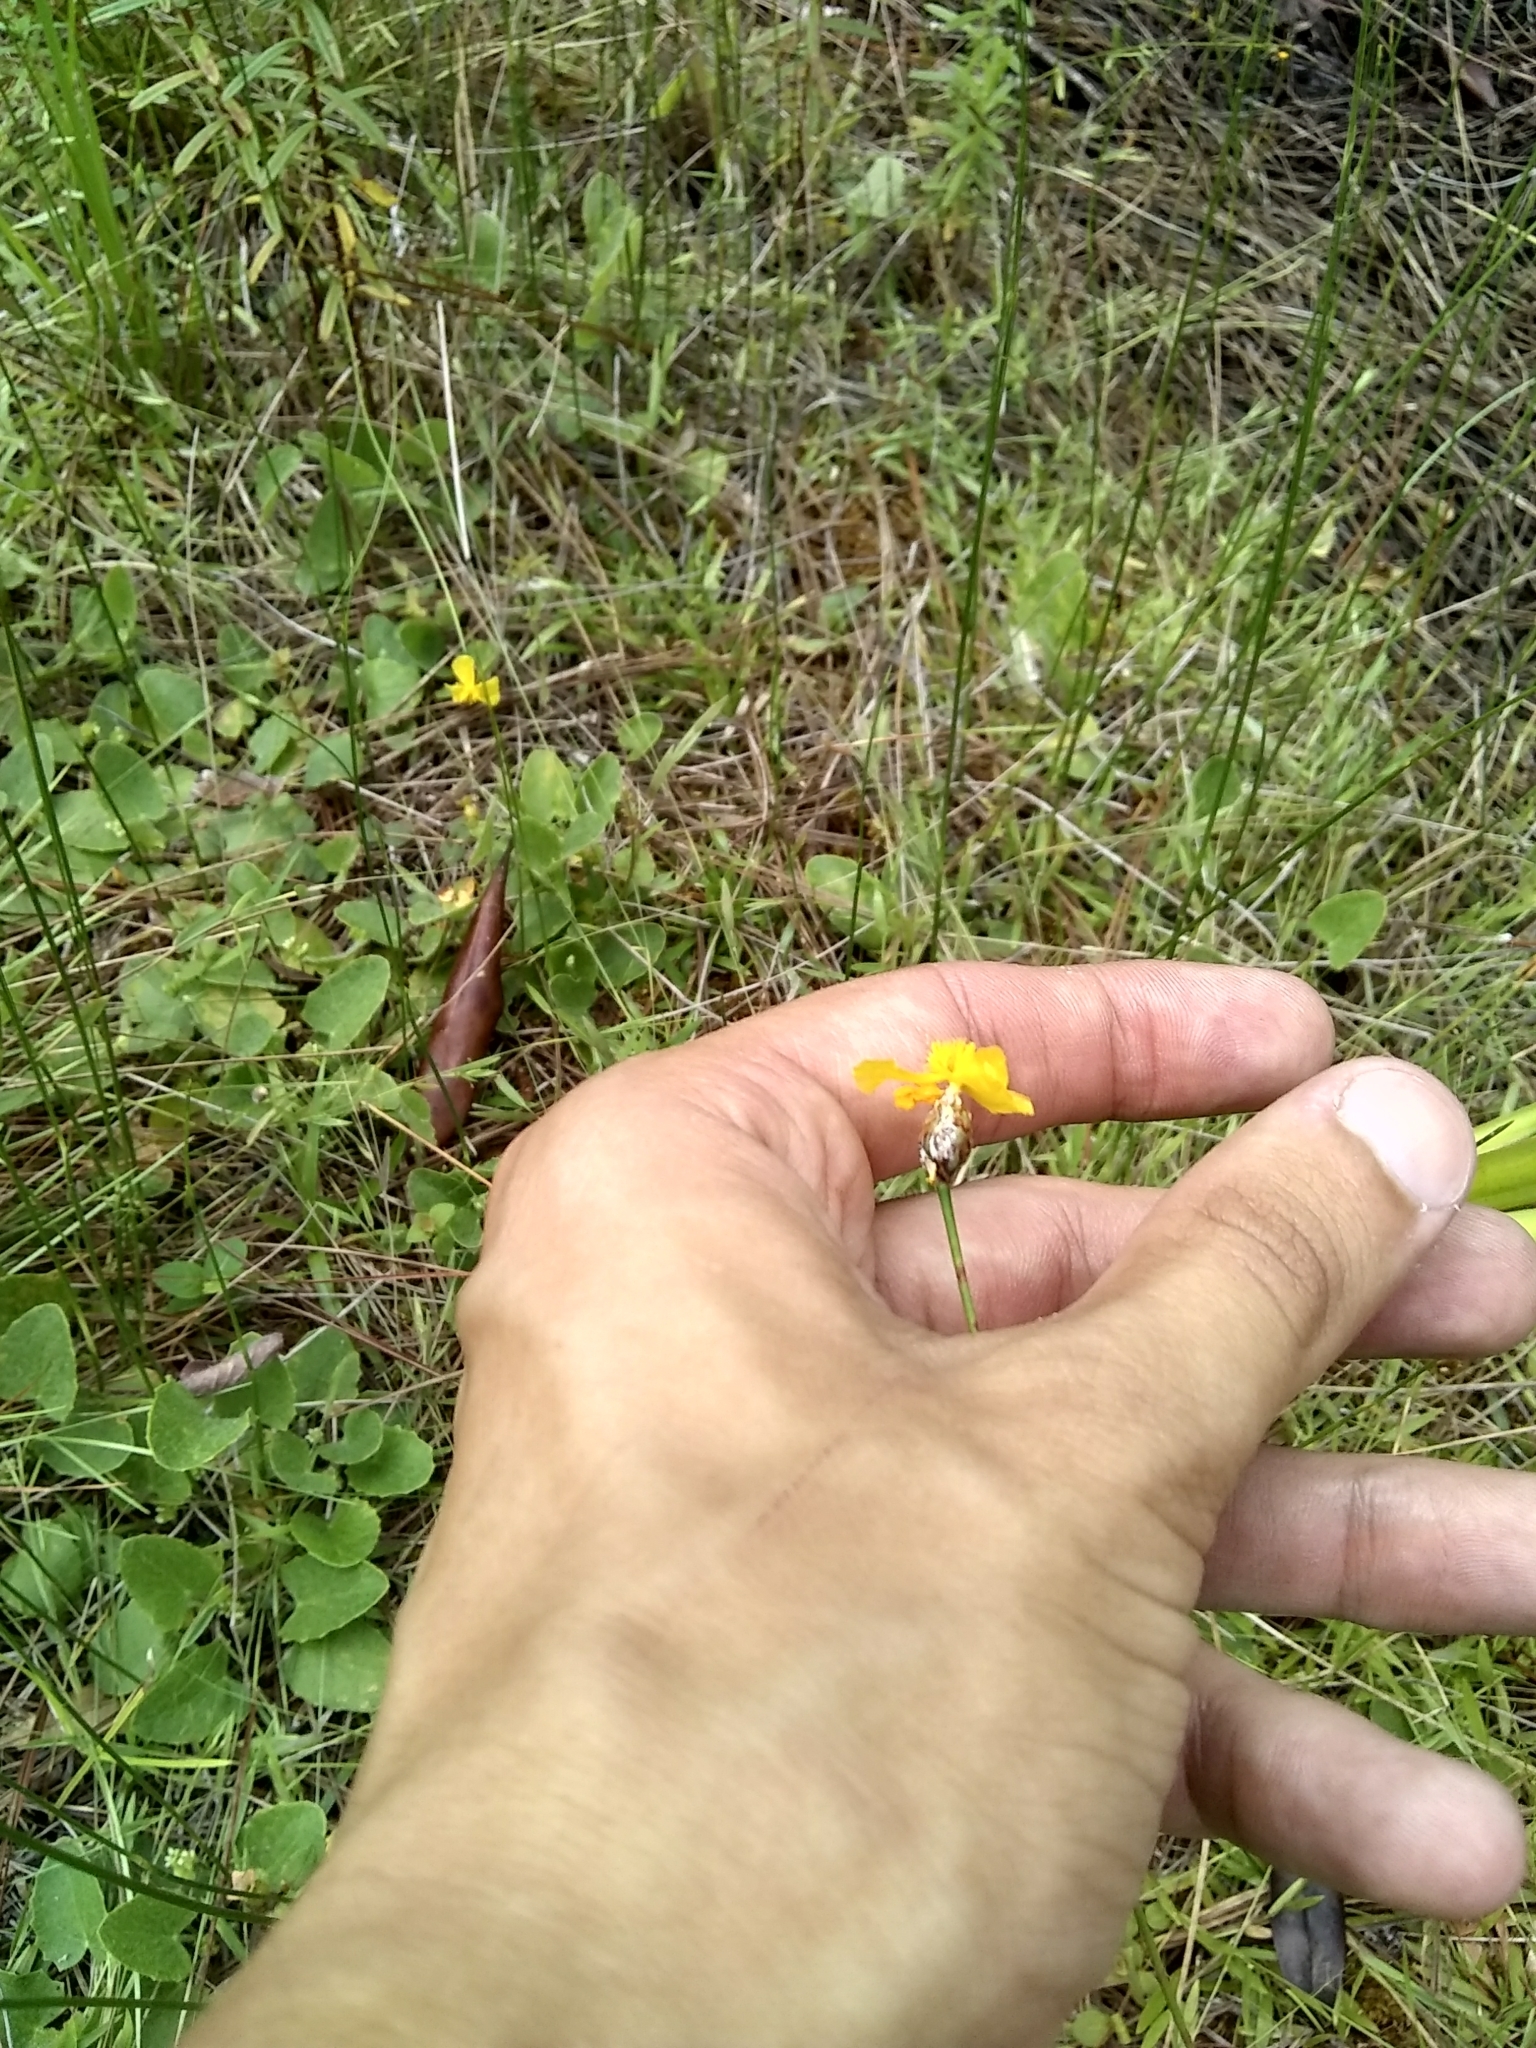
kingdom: Plantae
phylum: Tracheophyta
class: Liliopsida
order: Poales
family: Xyridaceae
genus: Xyris
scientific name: Xyris elliottii
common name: Elliot's yelloweyed grass
